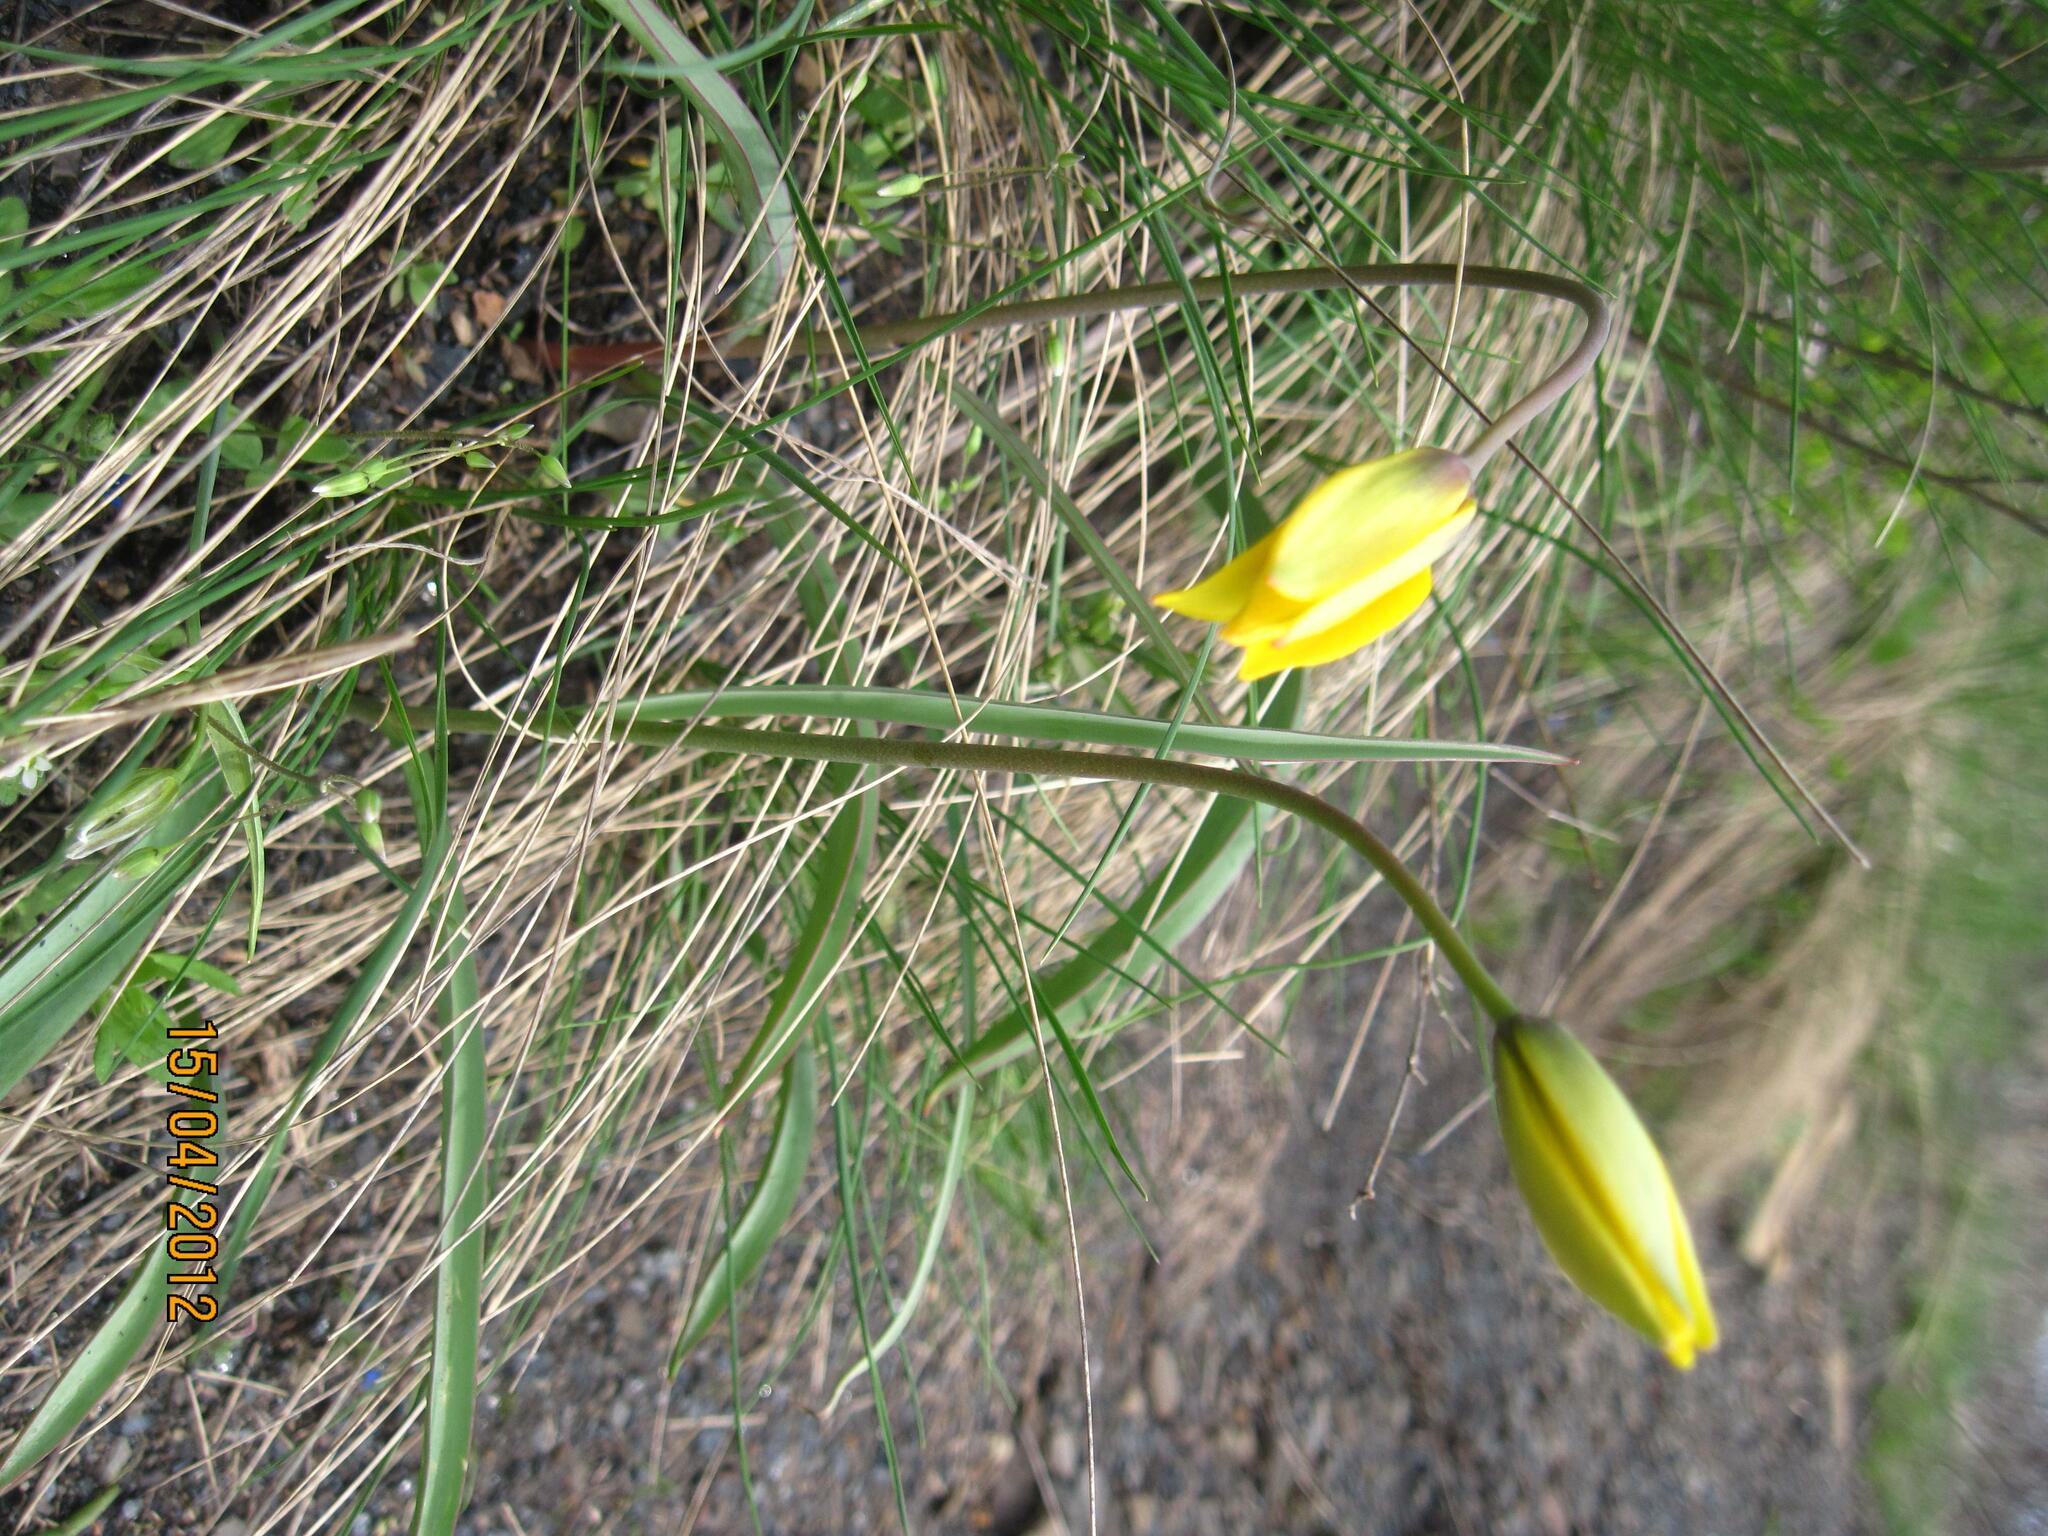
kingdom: Plantae
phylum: Tracheophyta
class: Liliopsida
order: Liliales
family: Liliaceae
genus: Tulipa
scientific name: Tulipa sylvestris
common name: Wild tulip
